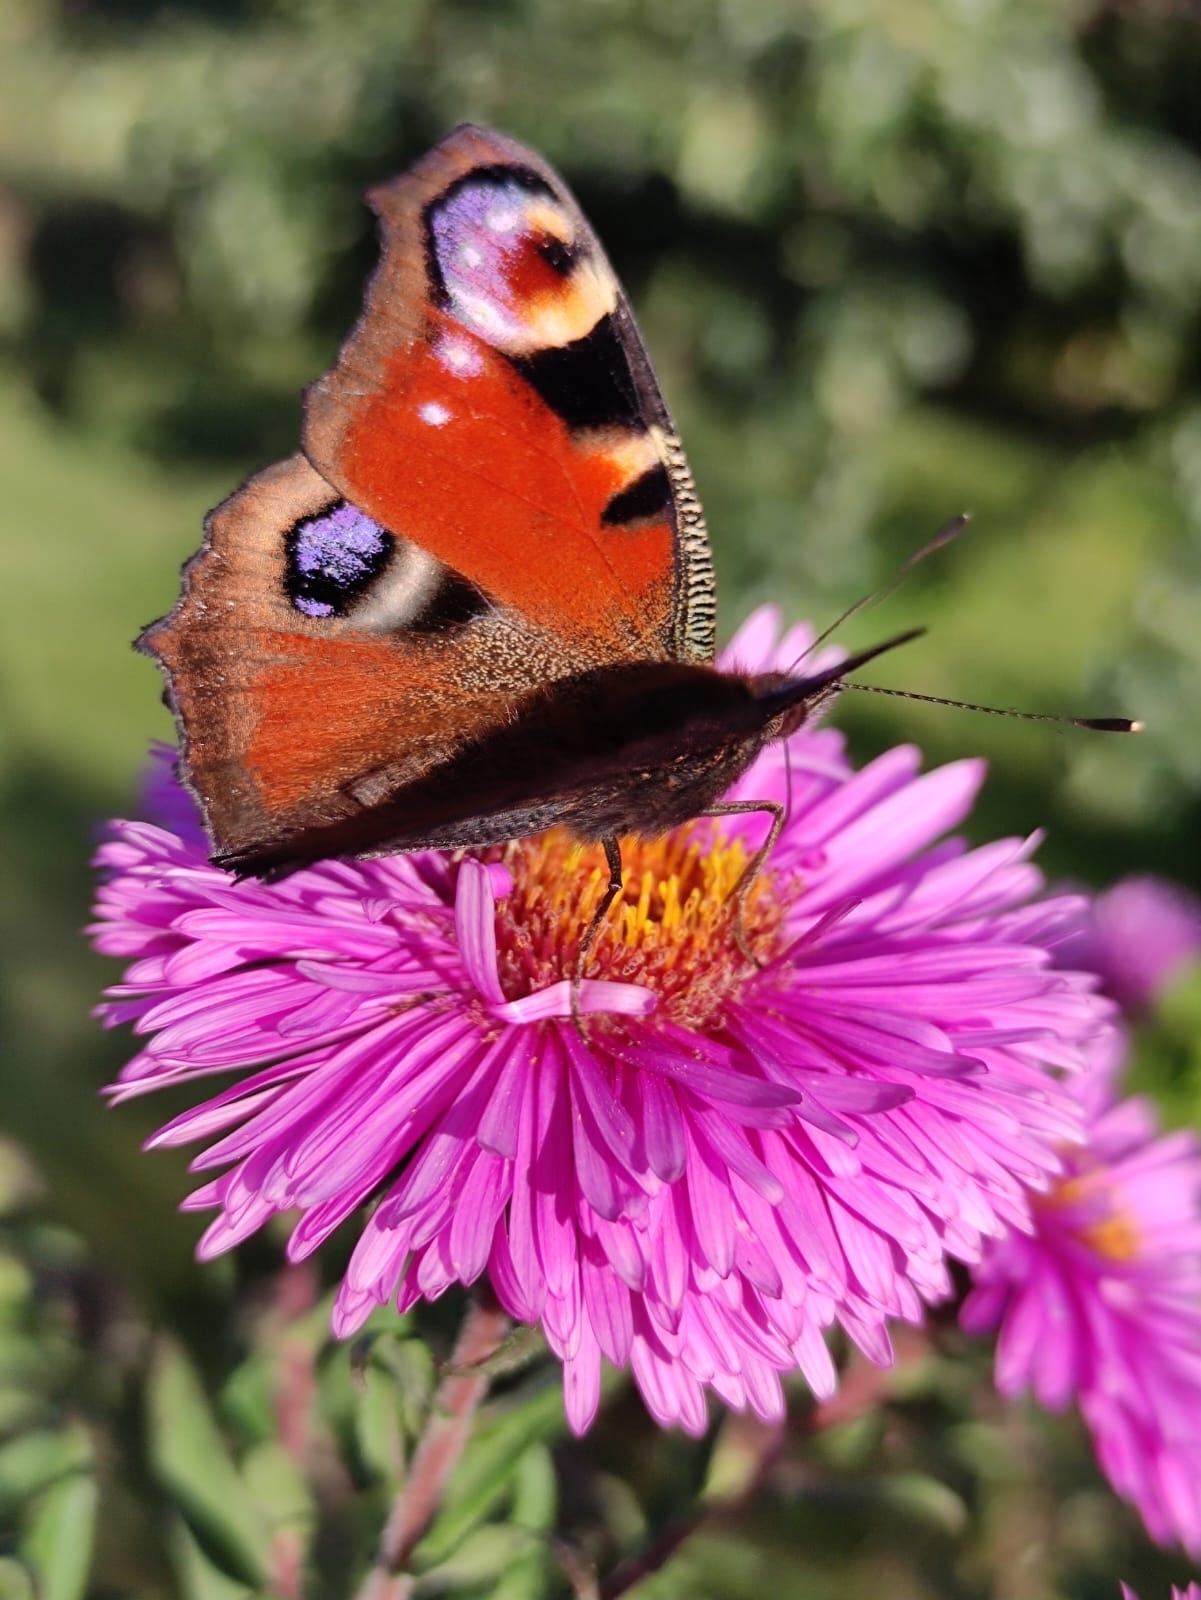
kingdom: Animalia
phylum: Arthropoda
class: Insecta
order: Lepidoptera
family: Nymphalidae
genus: Aglais
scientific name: Aglais io
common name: Peacock
